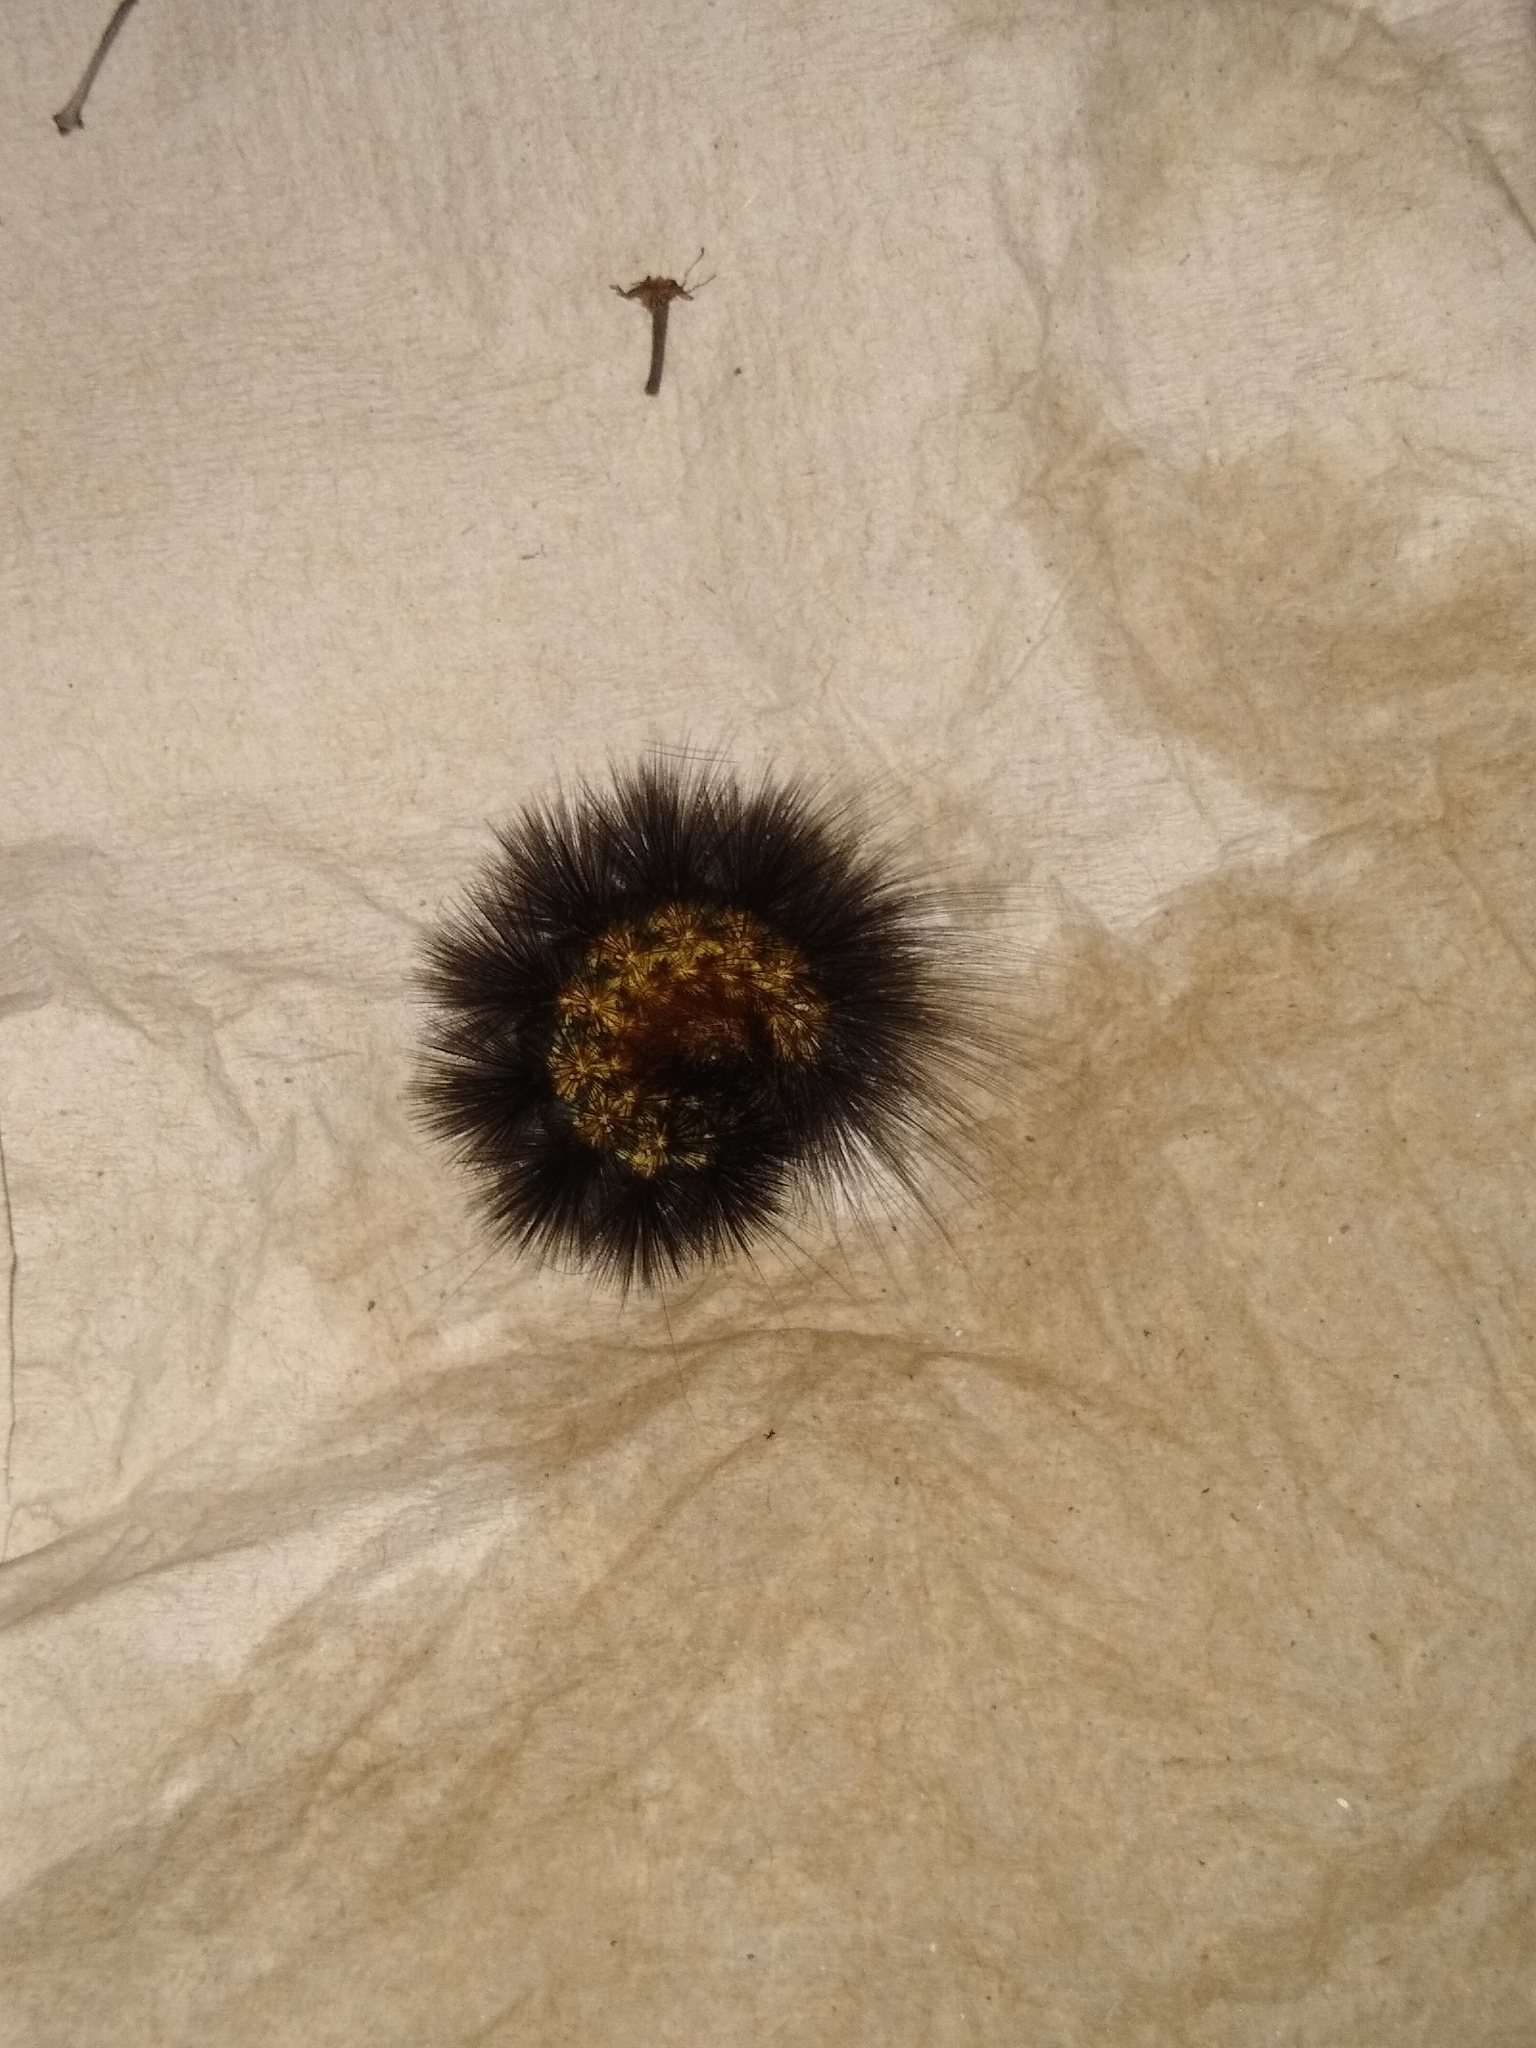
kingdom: Animalia
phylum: Arthropoda
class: Insecta
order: Lepidoptera
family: Erebidae
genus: Estigmene
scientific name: Estigmene acrea
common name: Salt marsh moth
